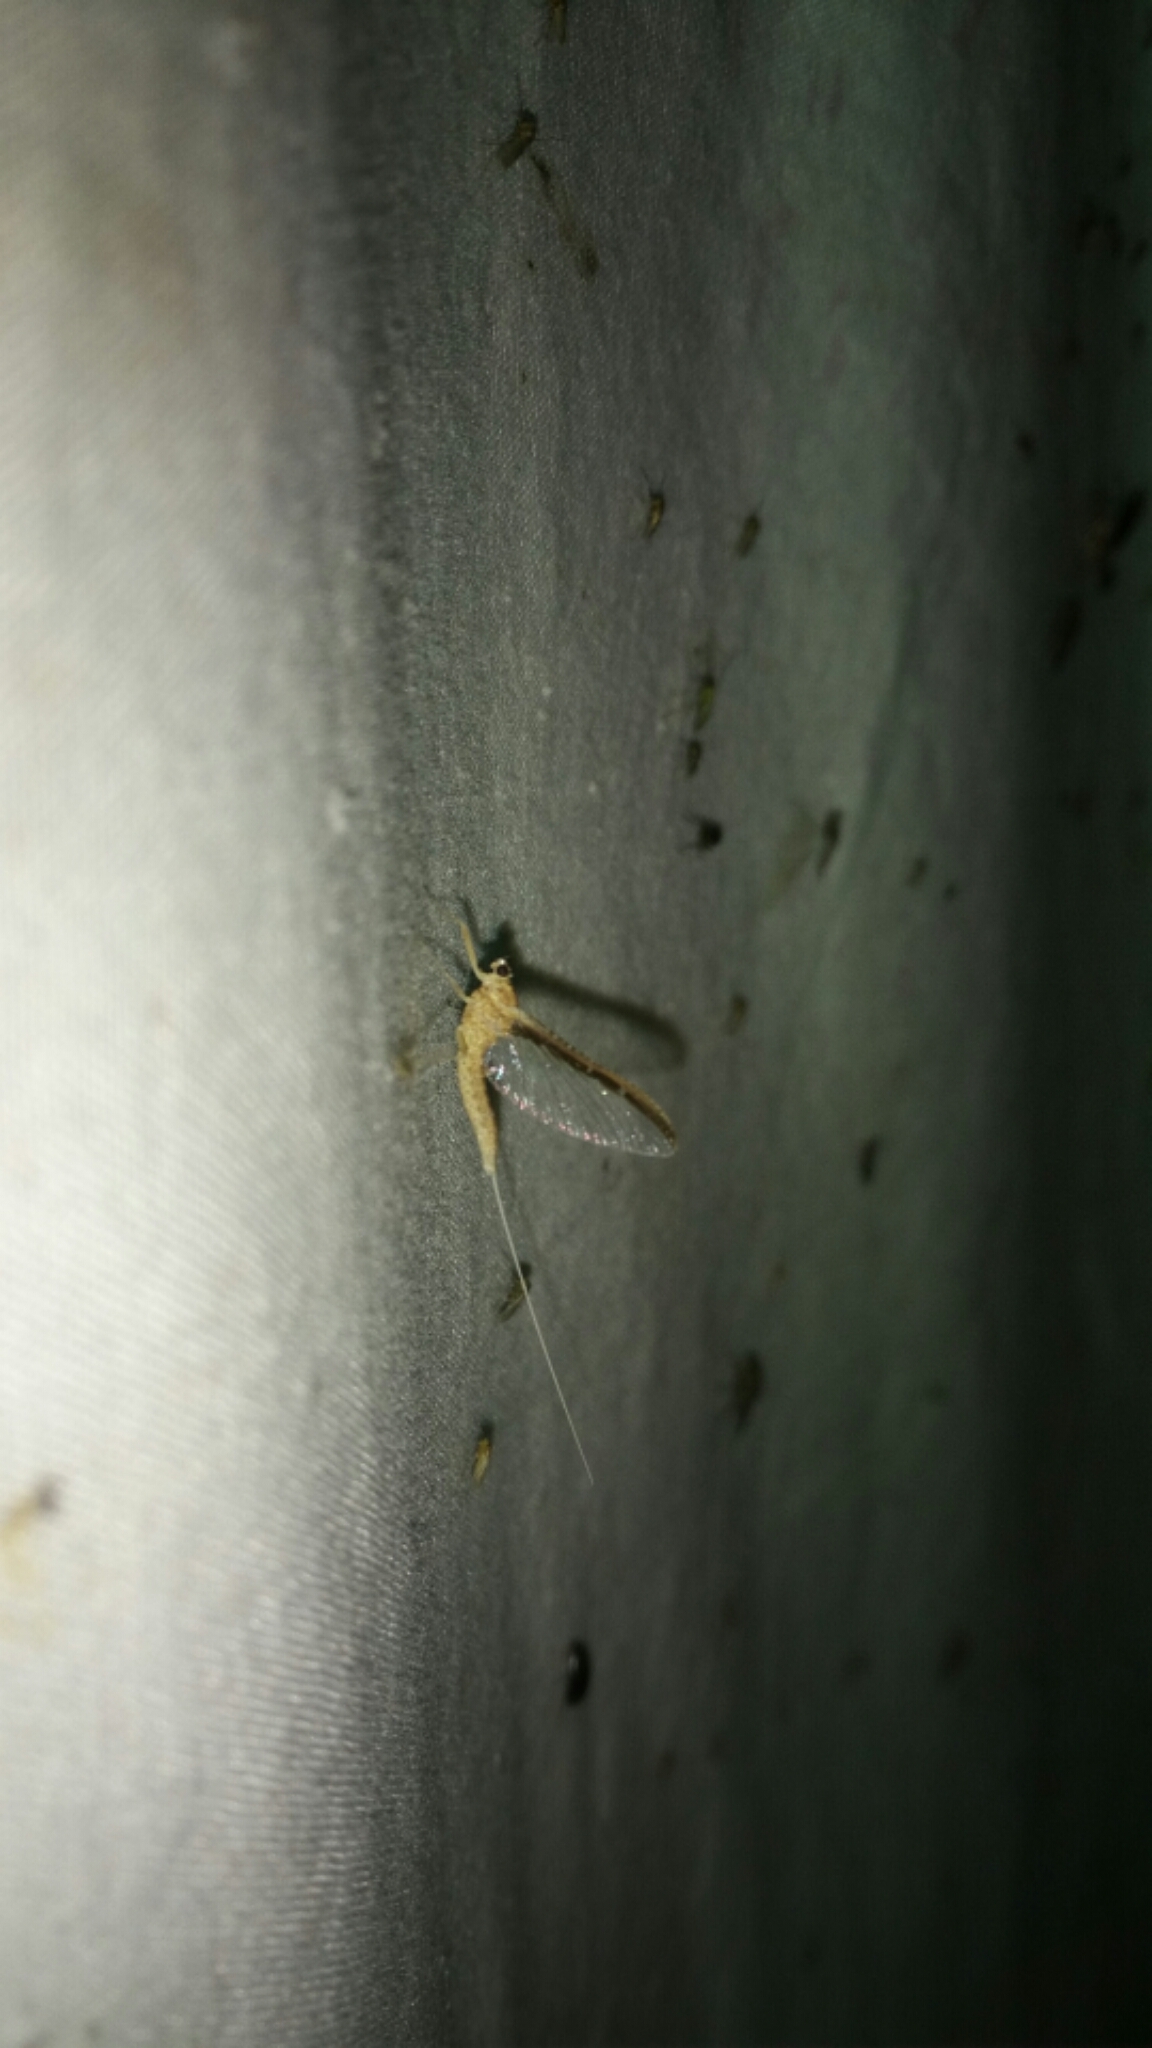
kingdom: Animalia
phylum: Arthropoda
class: Insecta
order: Ephemeroptera
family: Baetidae
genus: Callibaetis
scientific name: Callibaetis ferrugineus
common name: Red speckled dun
